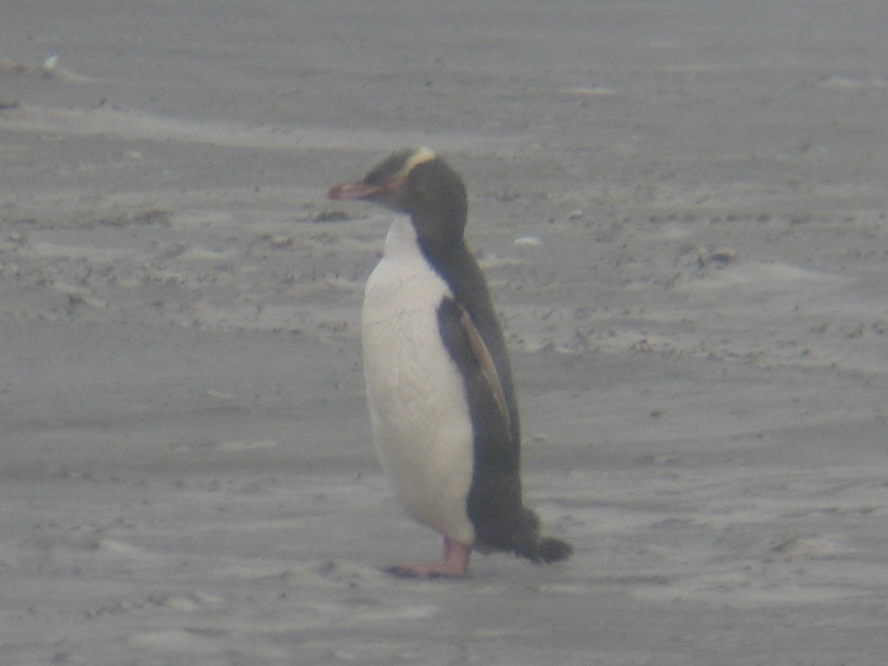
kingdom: Animalia
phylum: Chordata
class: Aves
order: Sphenisciformes
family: Spheniscidae
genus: Megadyptes
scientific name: Megadyptes antipodes
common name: Yellow-eyed penguin
